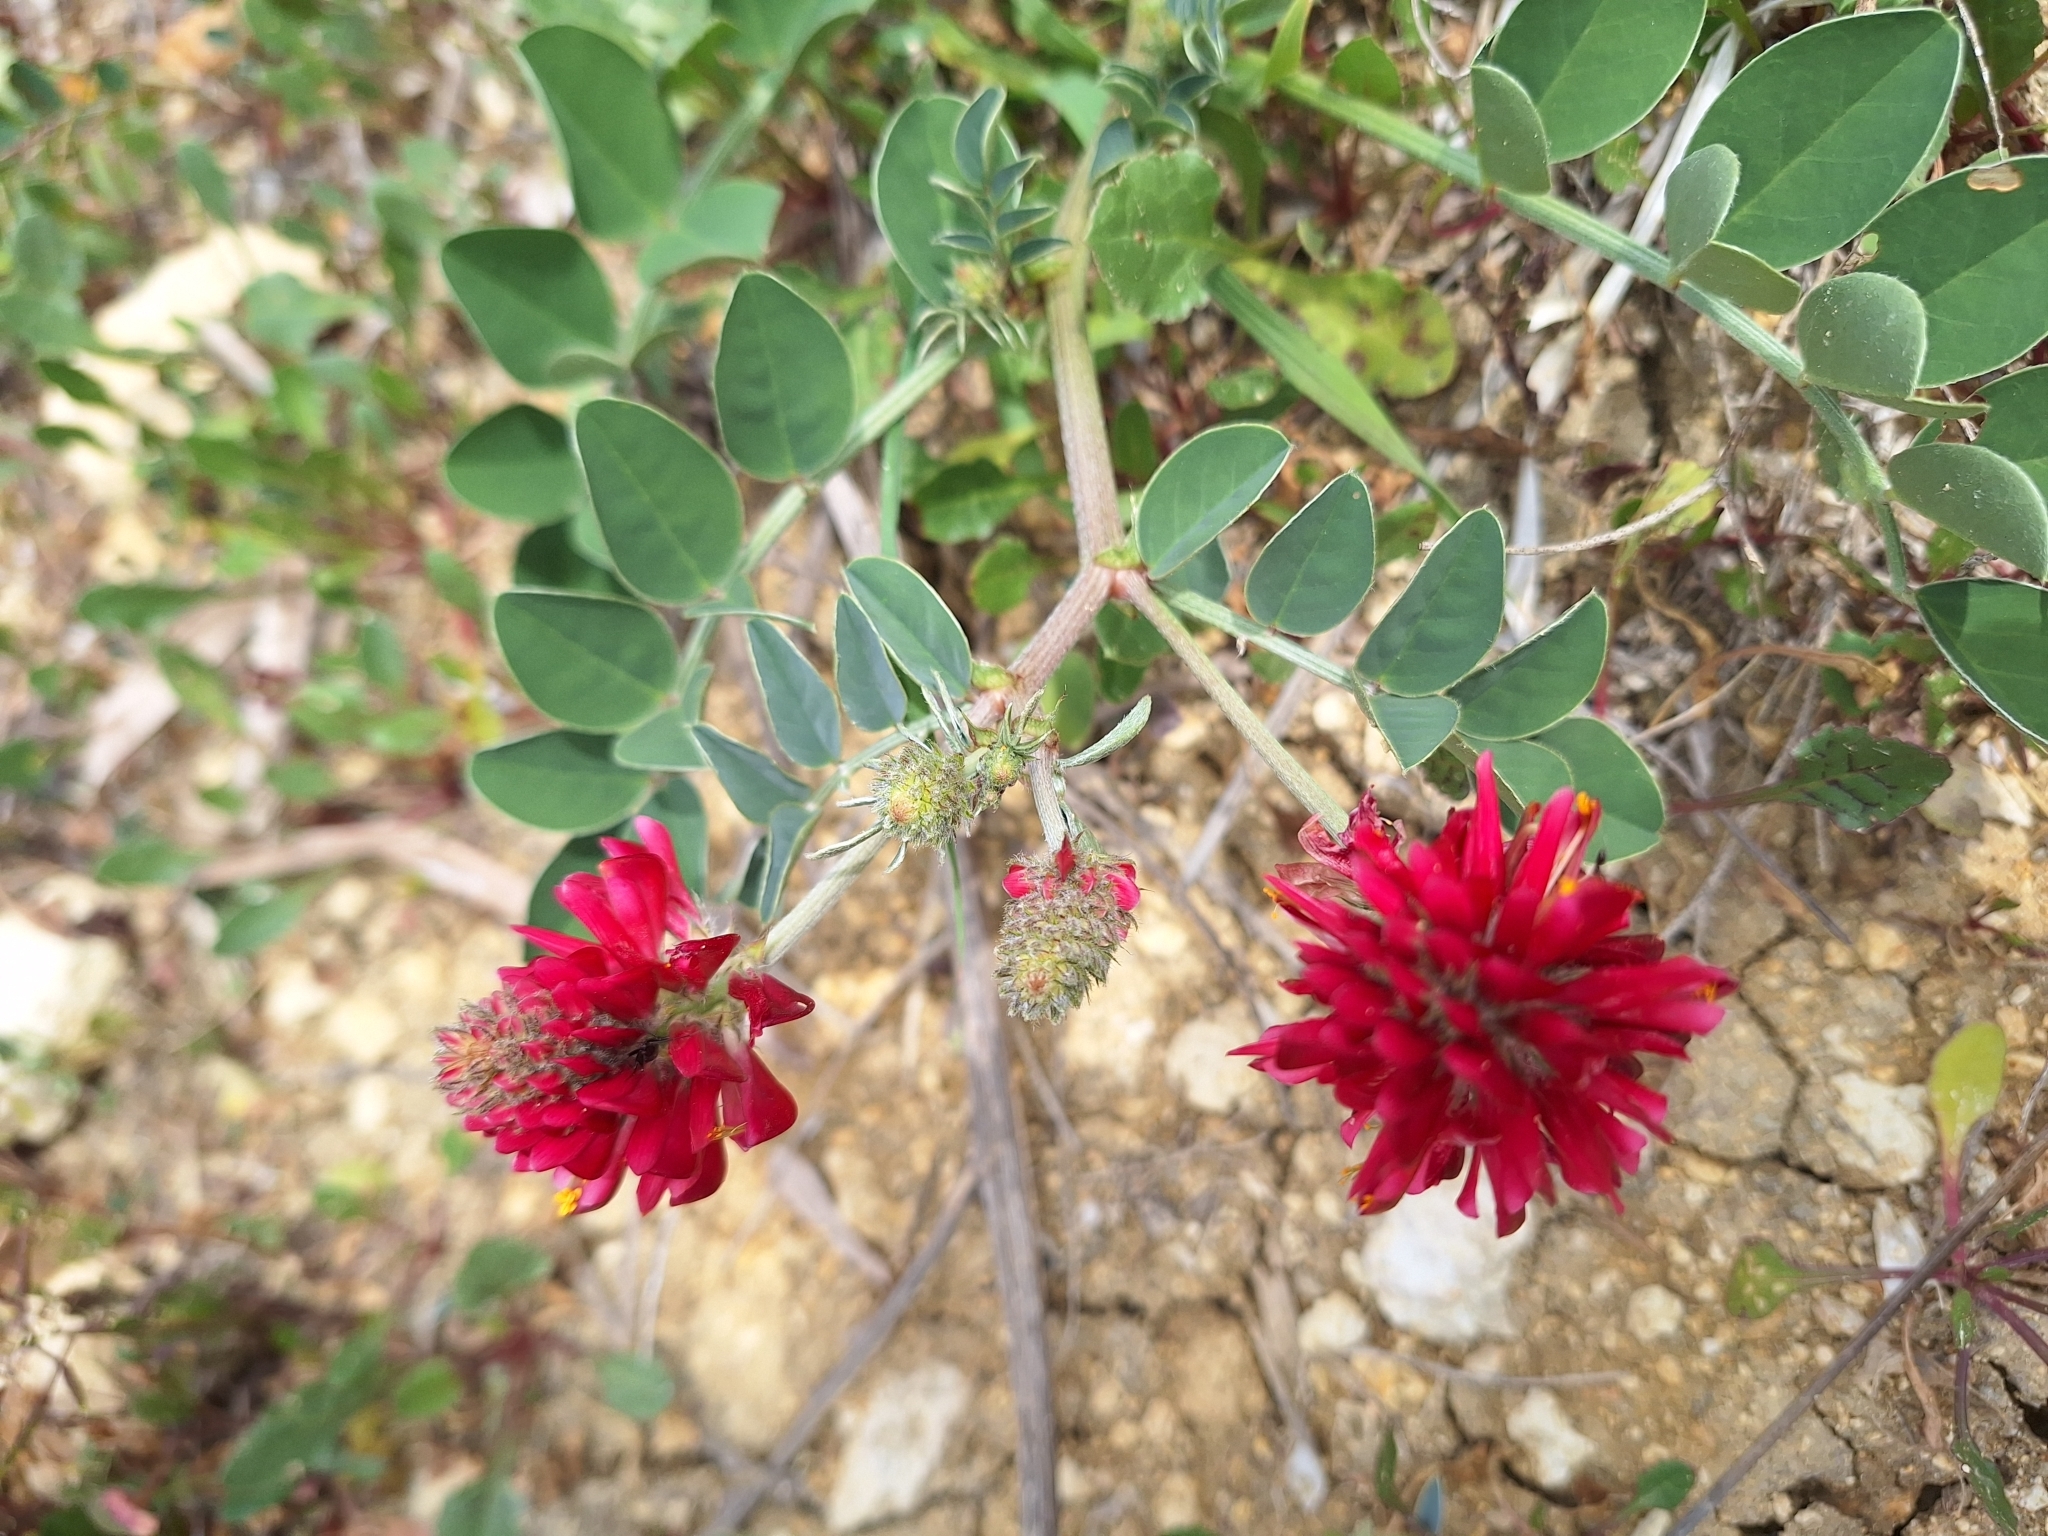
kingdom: Plantae
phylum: Tracheophyta
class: Magnoliopsida
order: Fabales
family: Fabaceae
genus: Sulla
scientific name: Sulla coronaria
